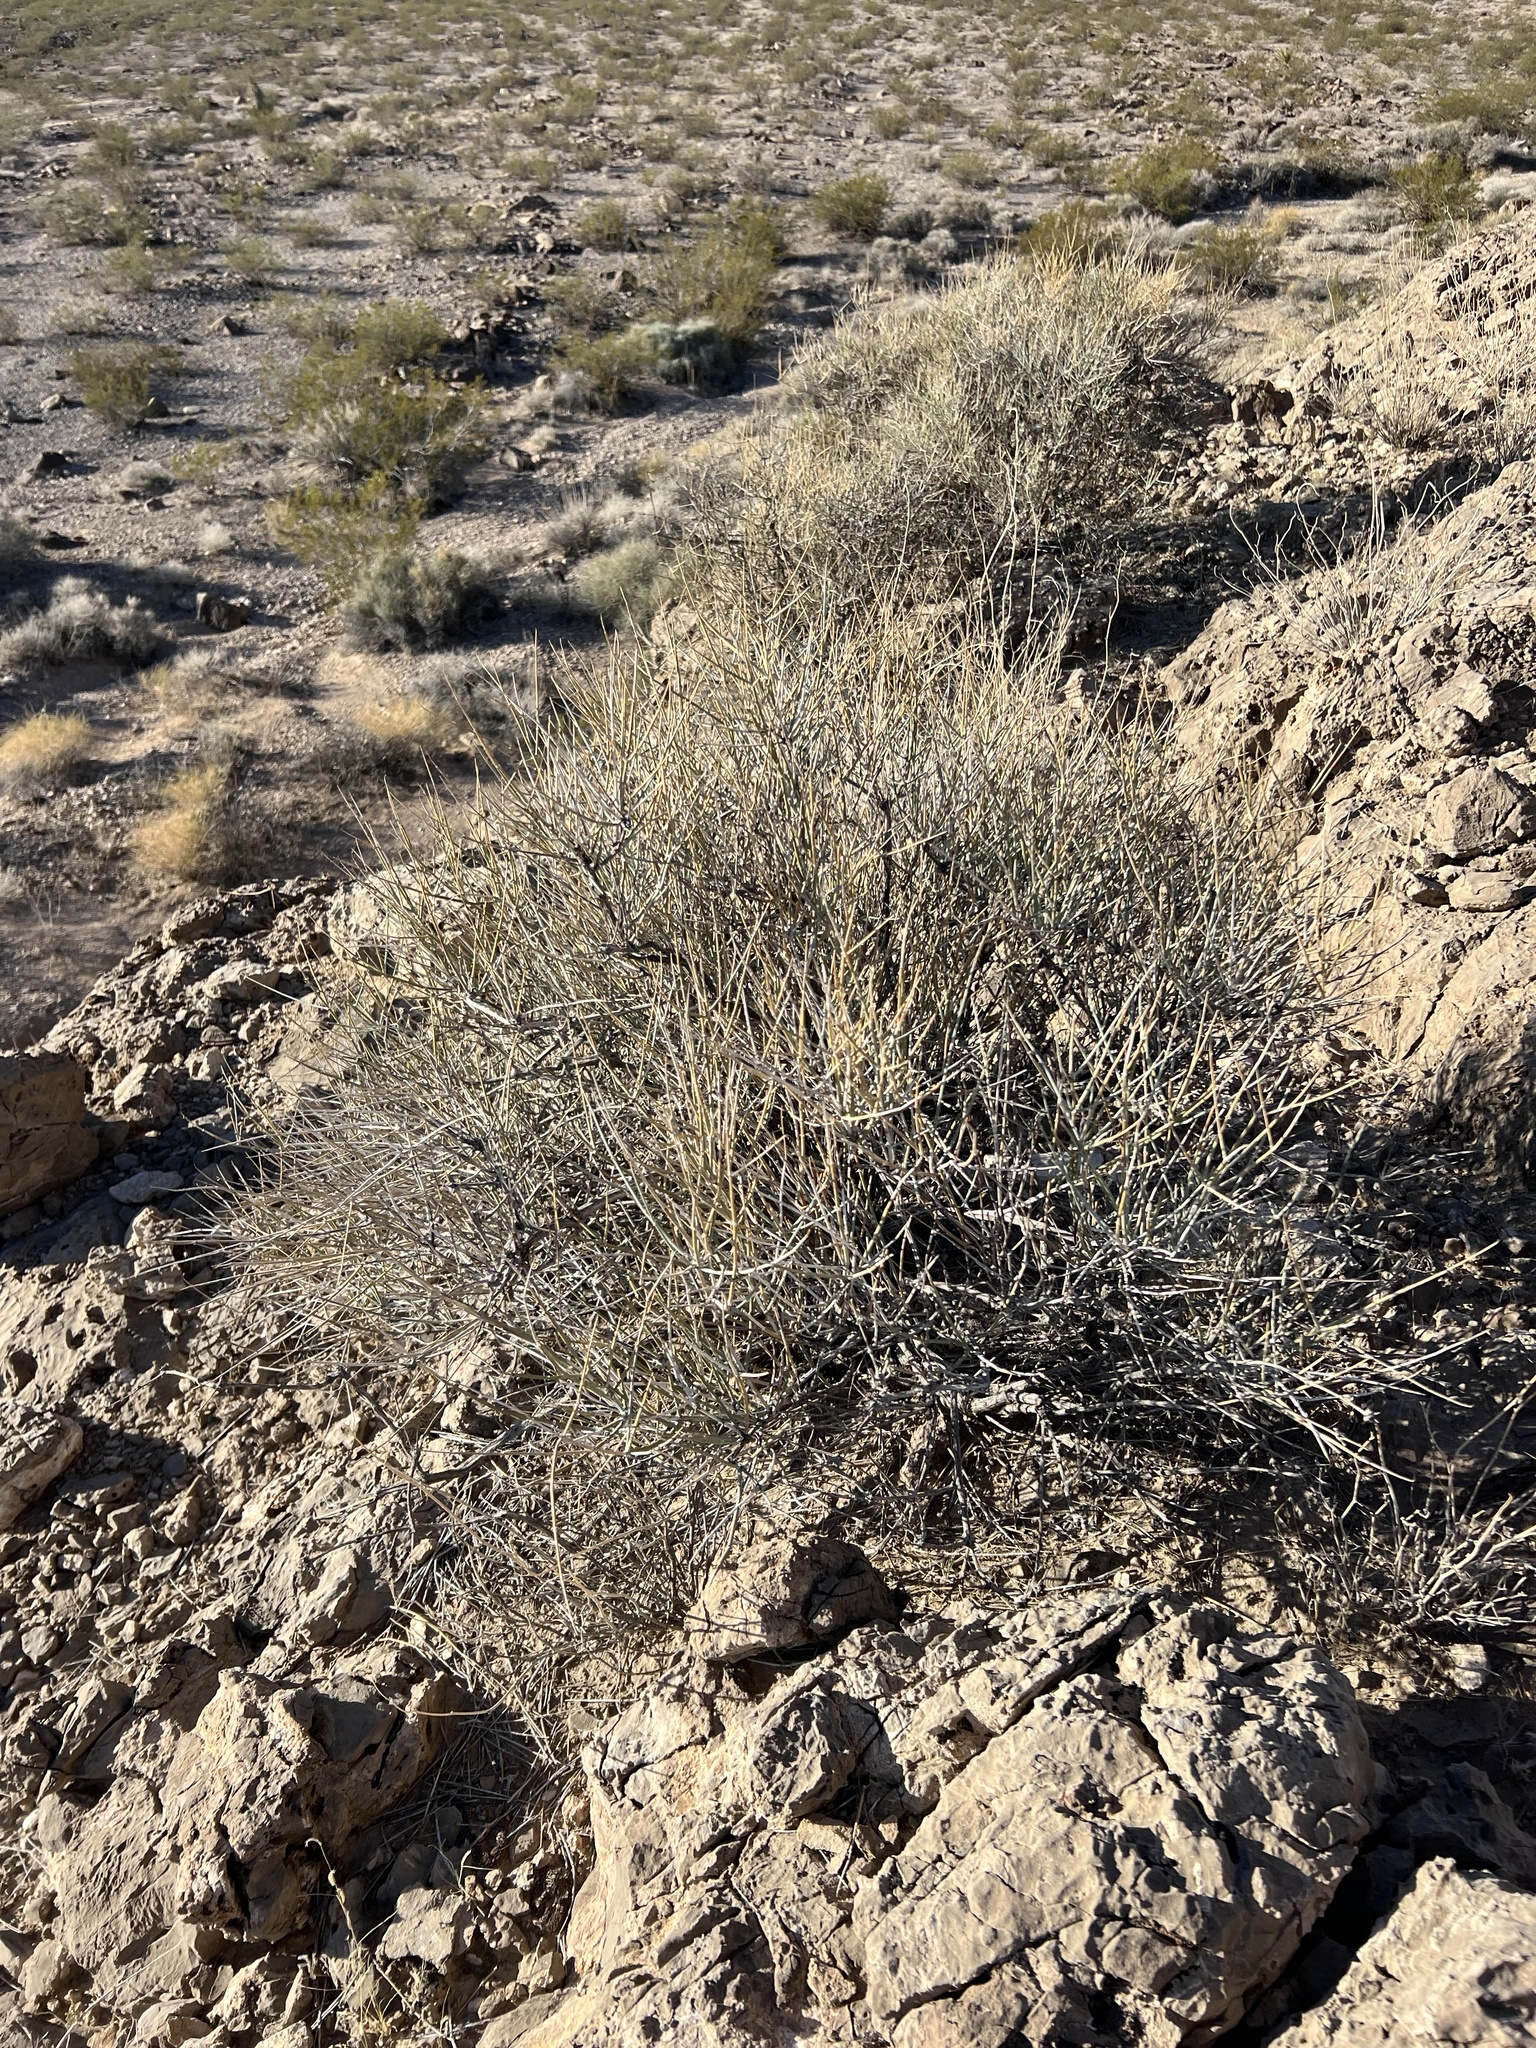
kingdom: Plantae
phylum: Tracheophyta
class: Gnetopsida
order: Ephedrales
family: Ephedraceae
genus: Ephedra
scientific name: Ephedra nevadensis
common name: Gray ephedra
